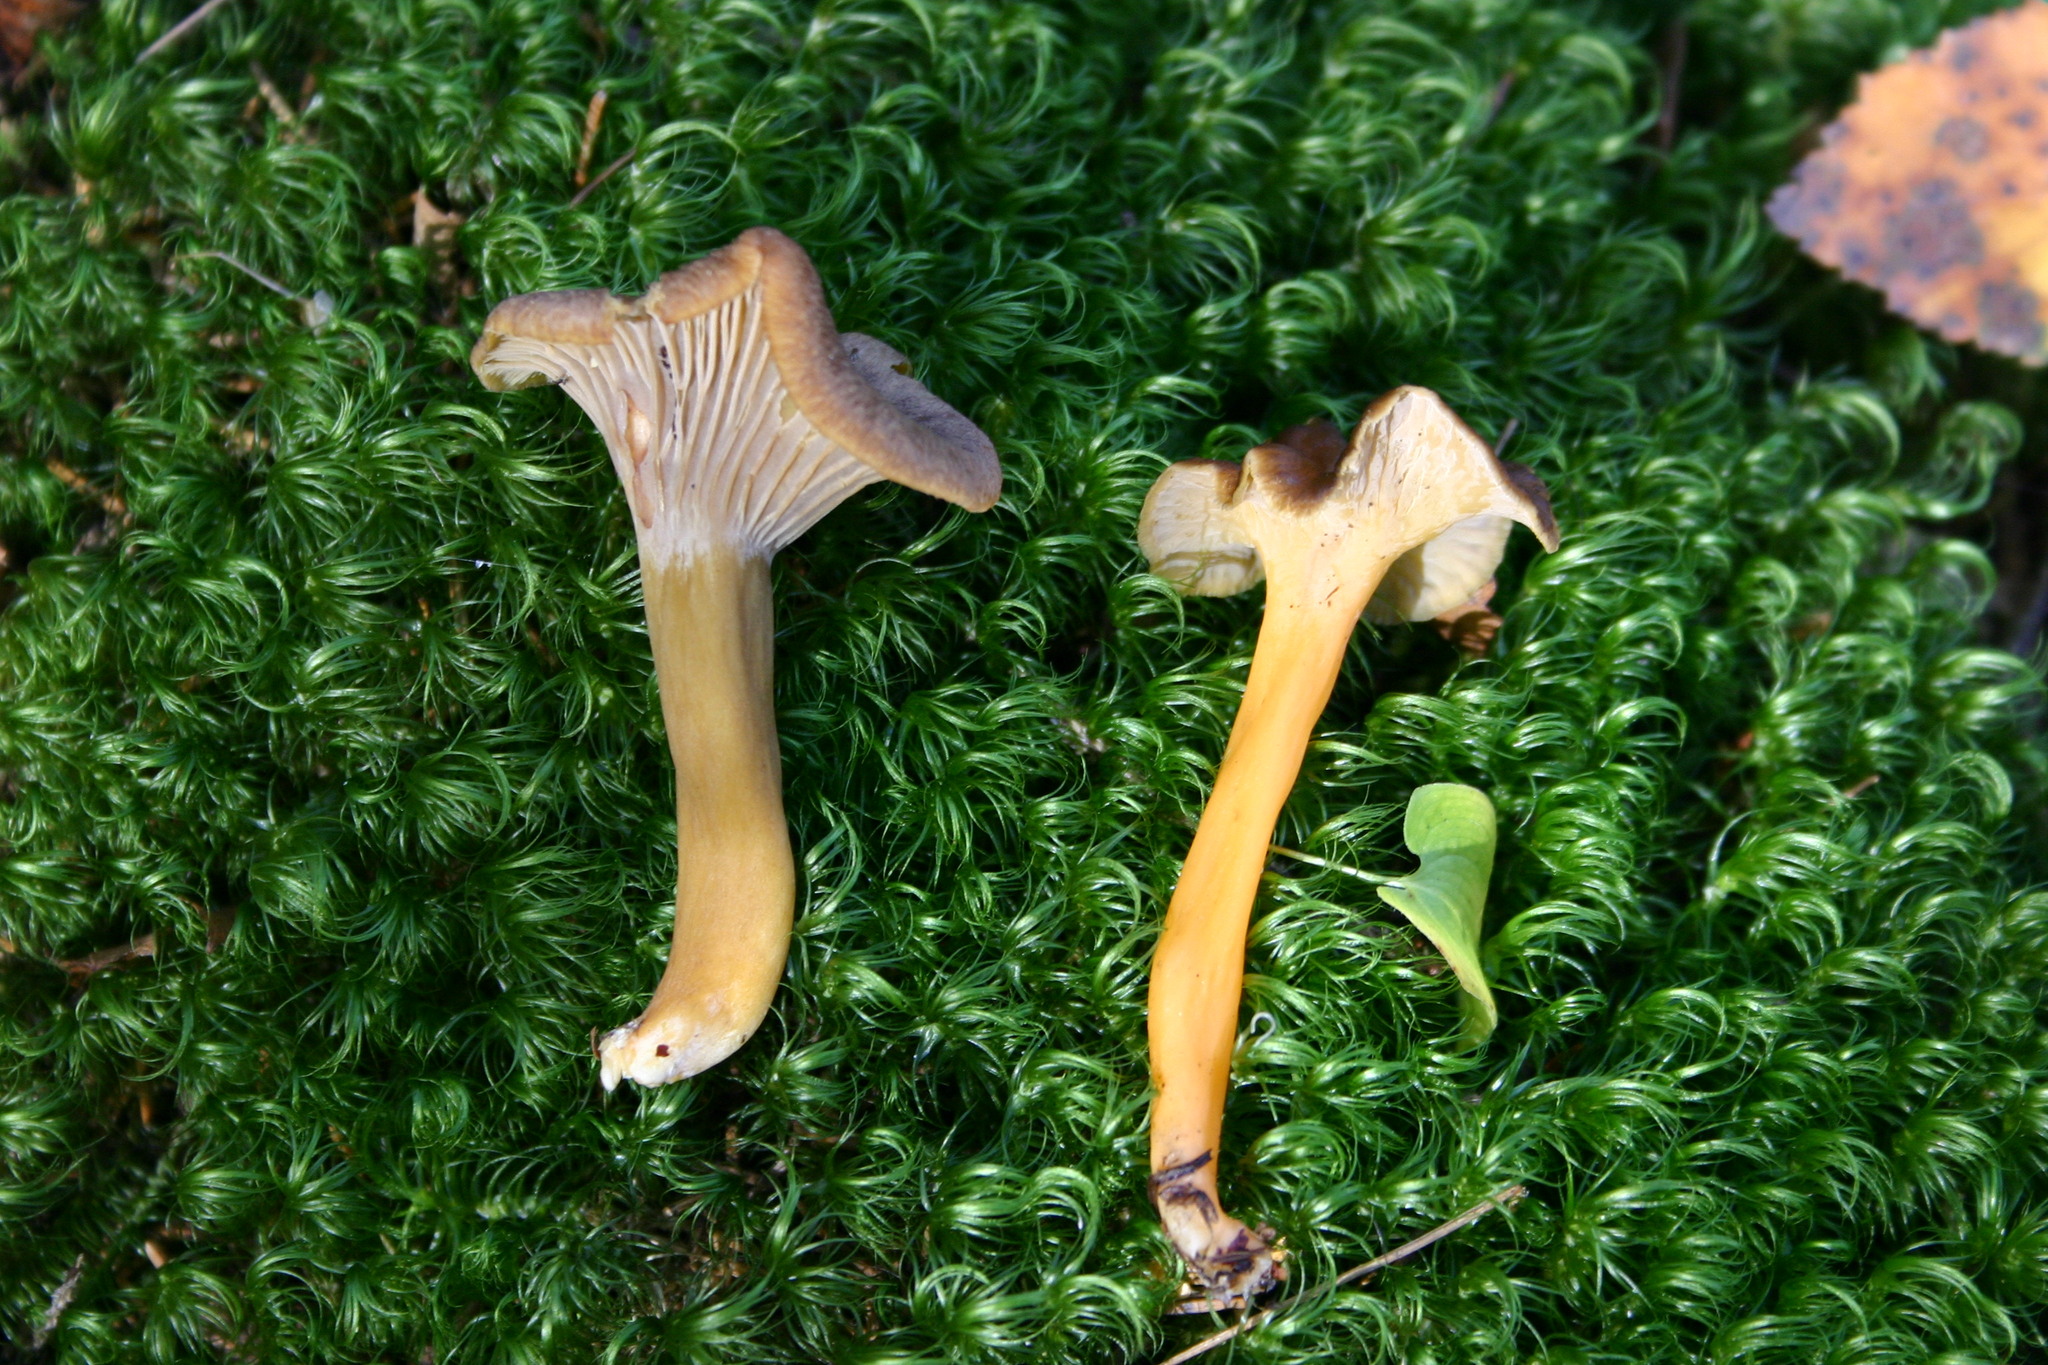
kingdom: Fungi
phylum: Basidiomycota
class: Agaricomycetes
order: Cantharellales
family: Hydnaceae
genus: Craterellus
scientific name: Craterellus tubaeformis
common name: Yellowfoot
